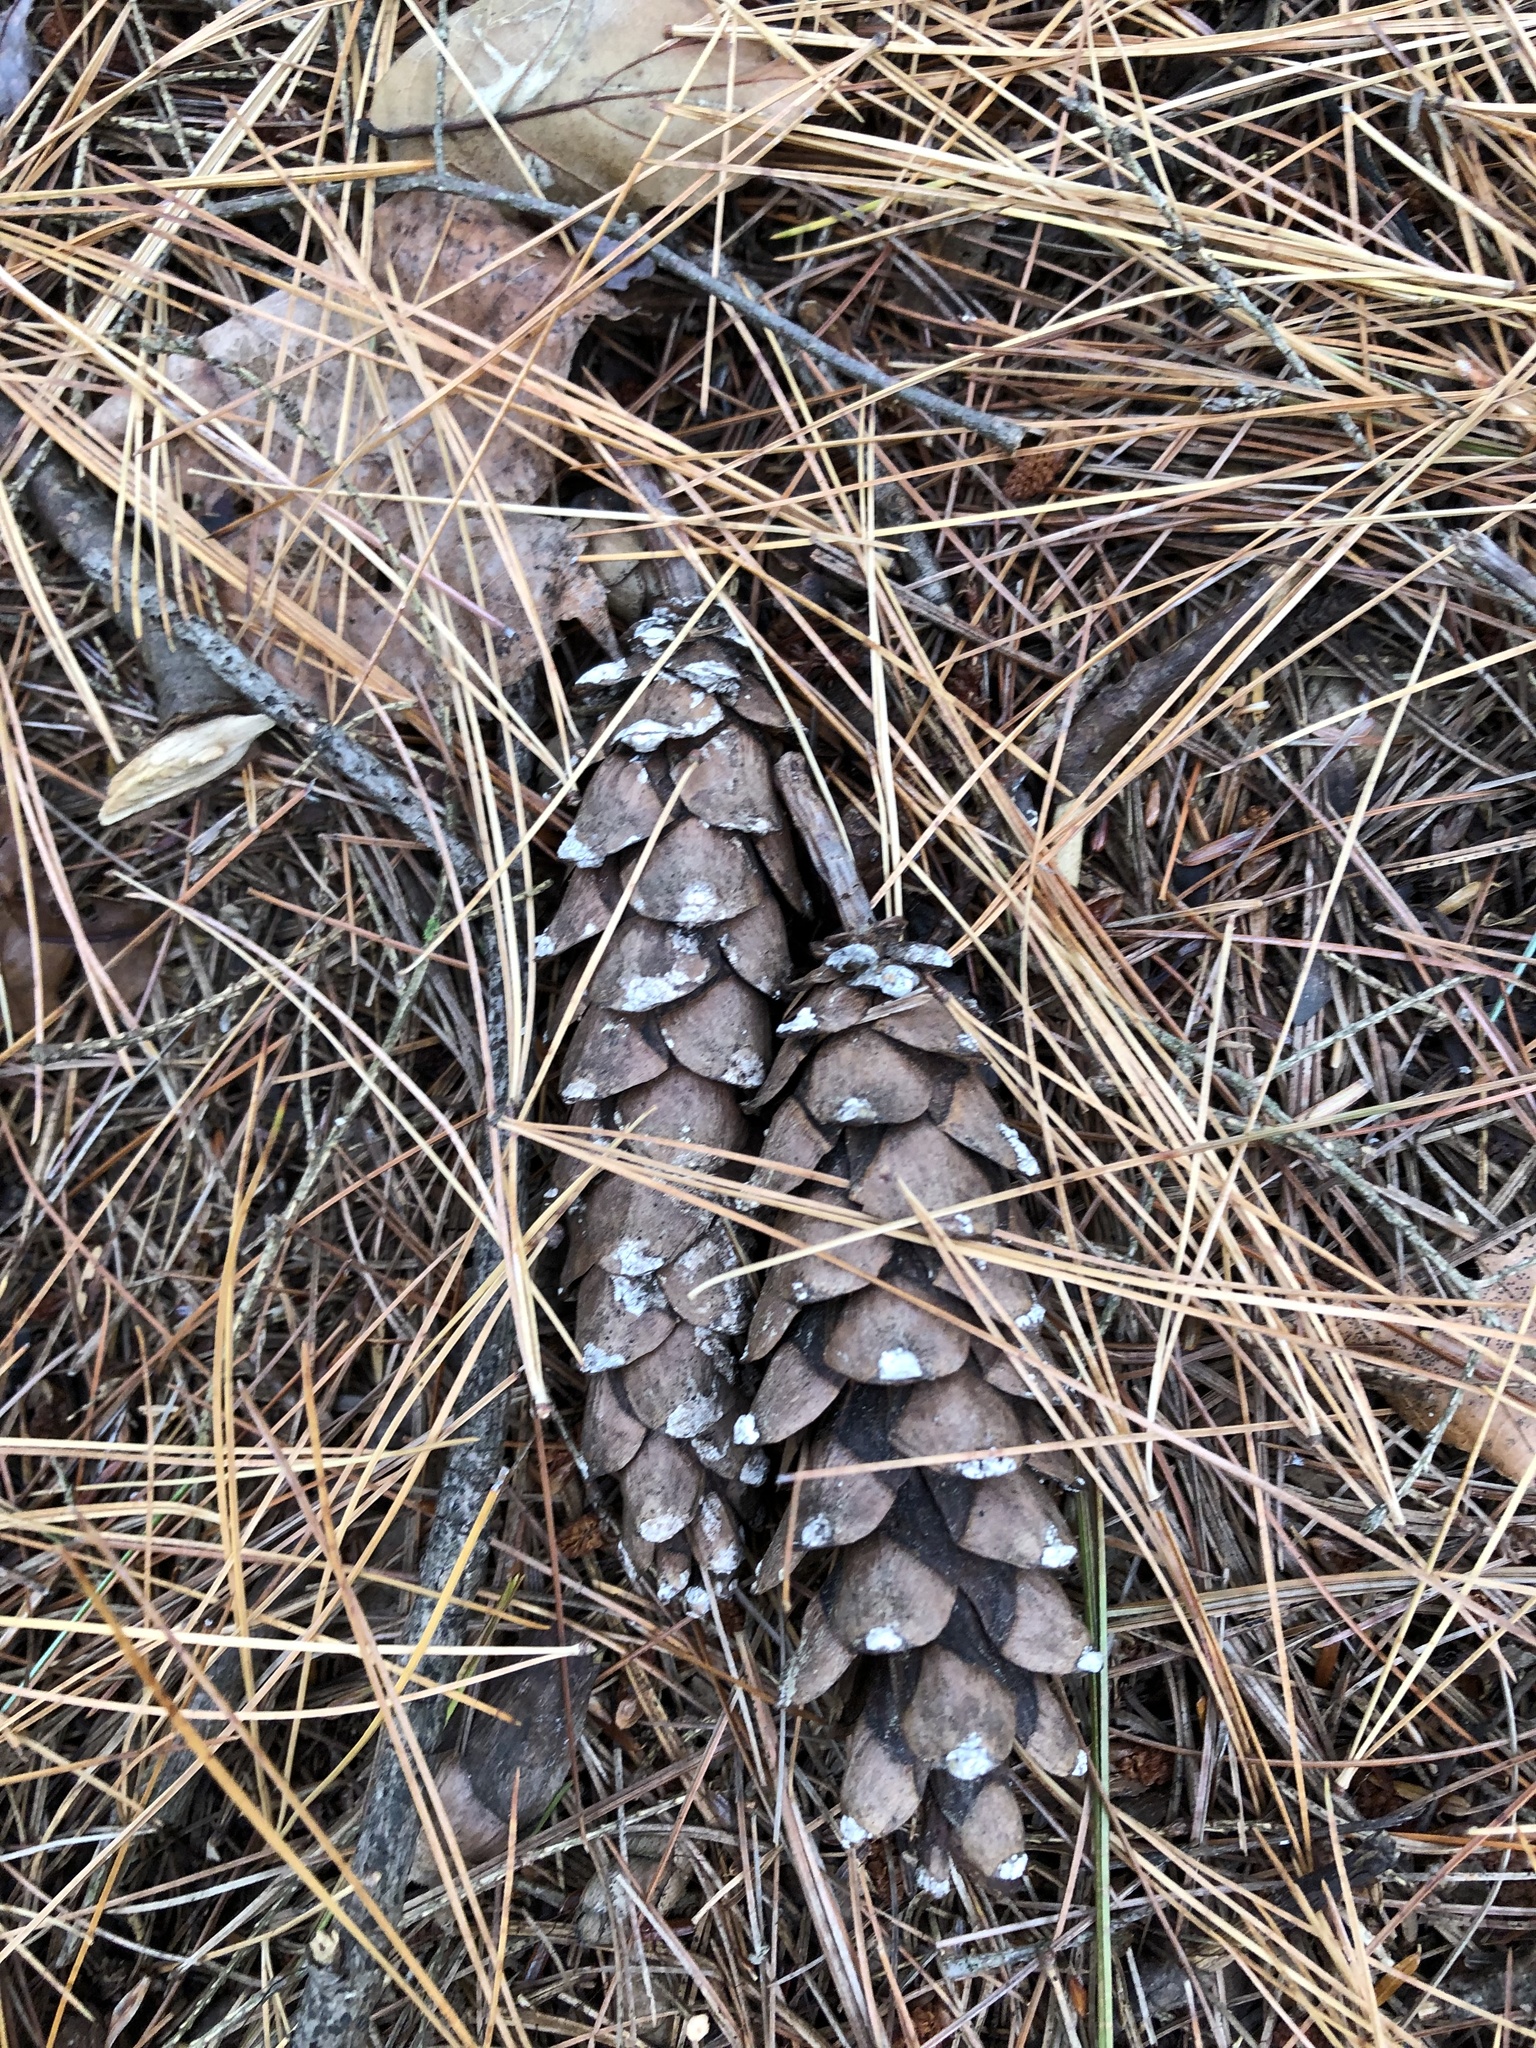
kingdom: Plantae
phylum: Tracheophyta
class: Pinopsida
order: Pinales
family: Pinaceae
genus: Pinus
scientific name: Pinus strobus
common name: Weymouth pine
